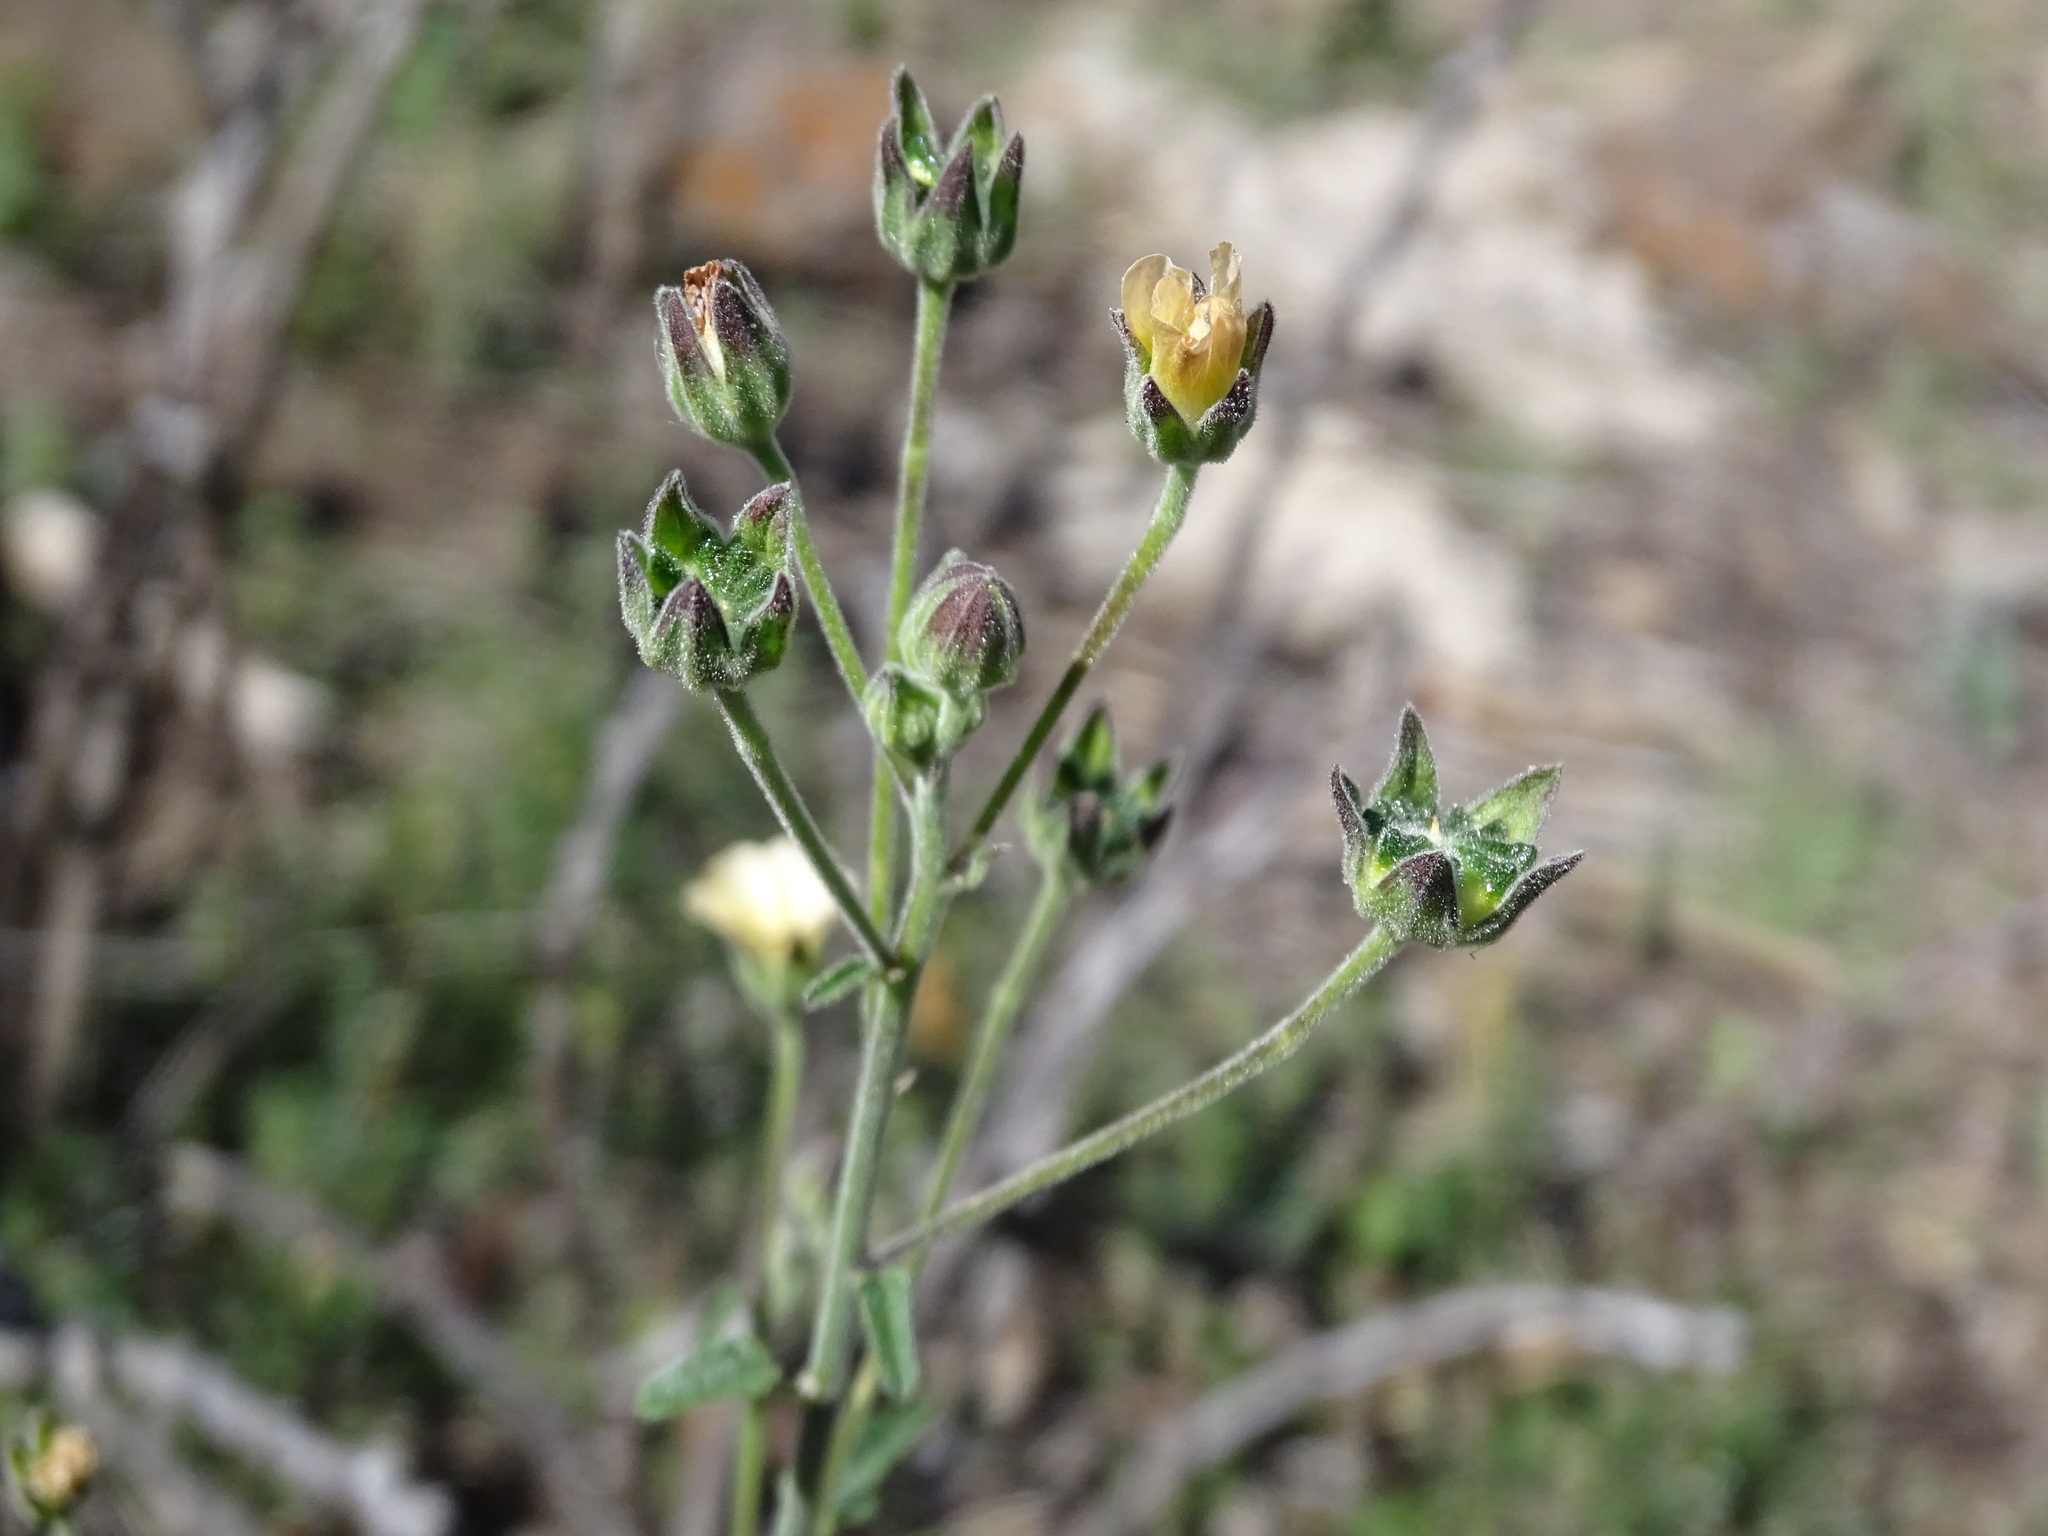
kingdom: Plantae
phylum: Tracheophyta
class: Magnoliopsida
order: Malvales
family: Malvaceae
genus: Anoda
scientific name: Anoda crenatiflora
